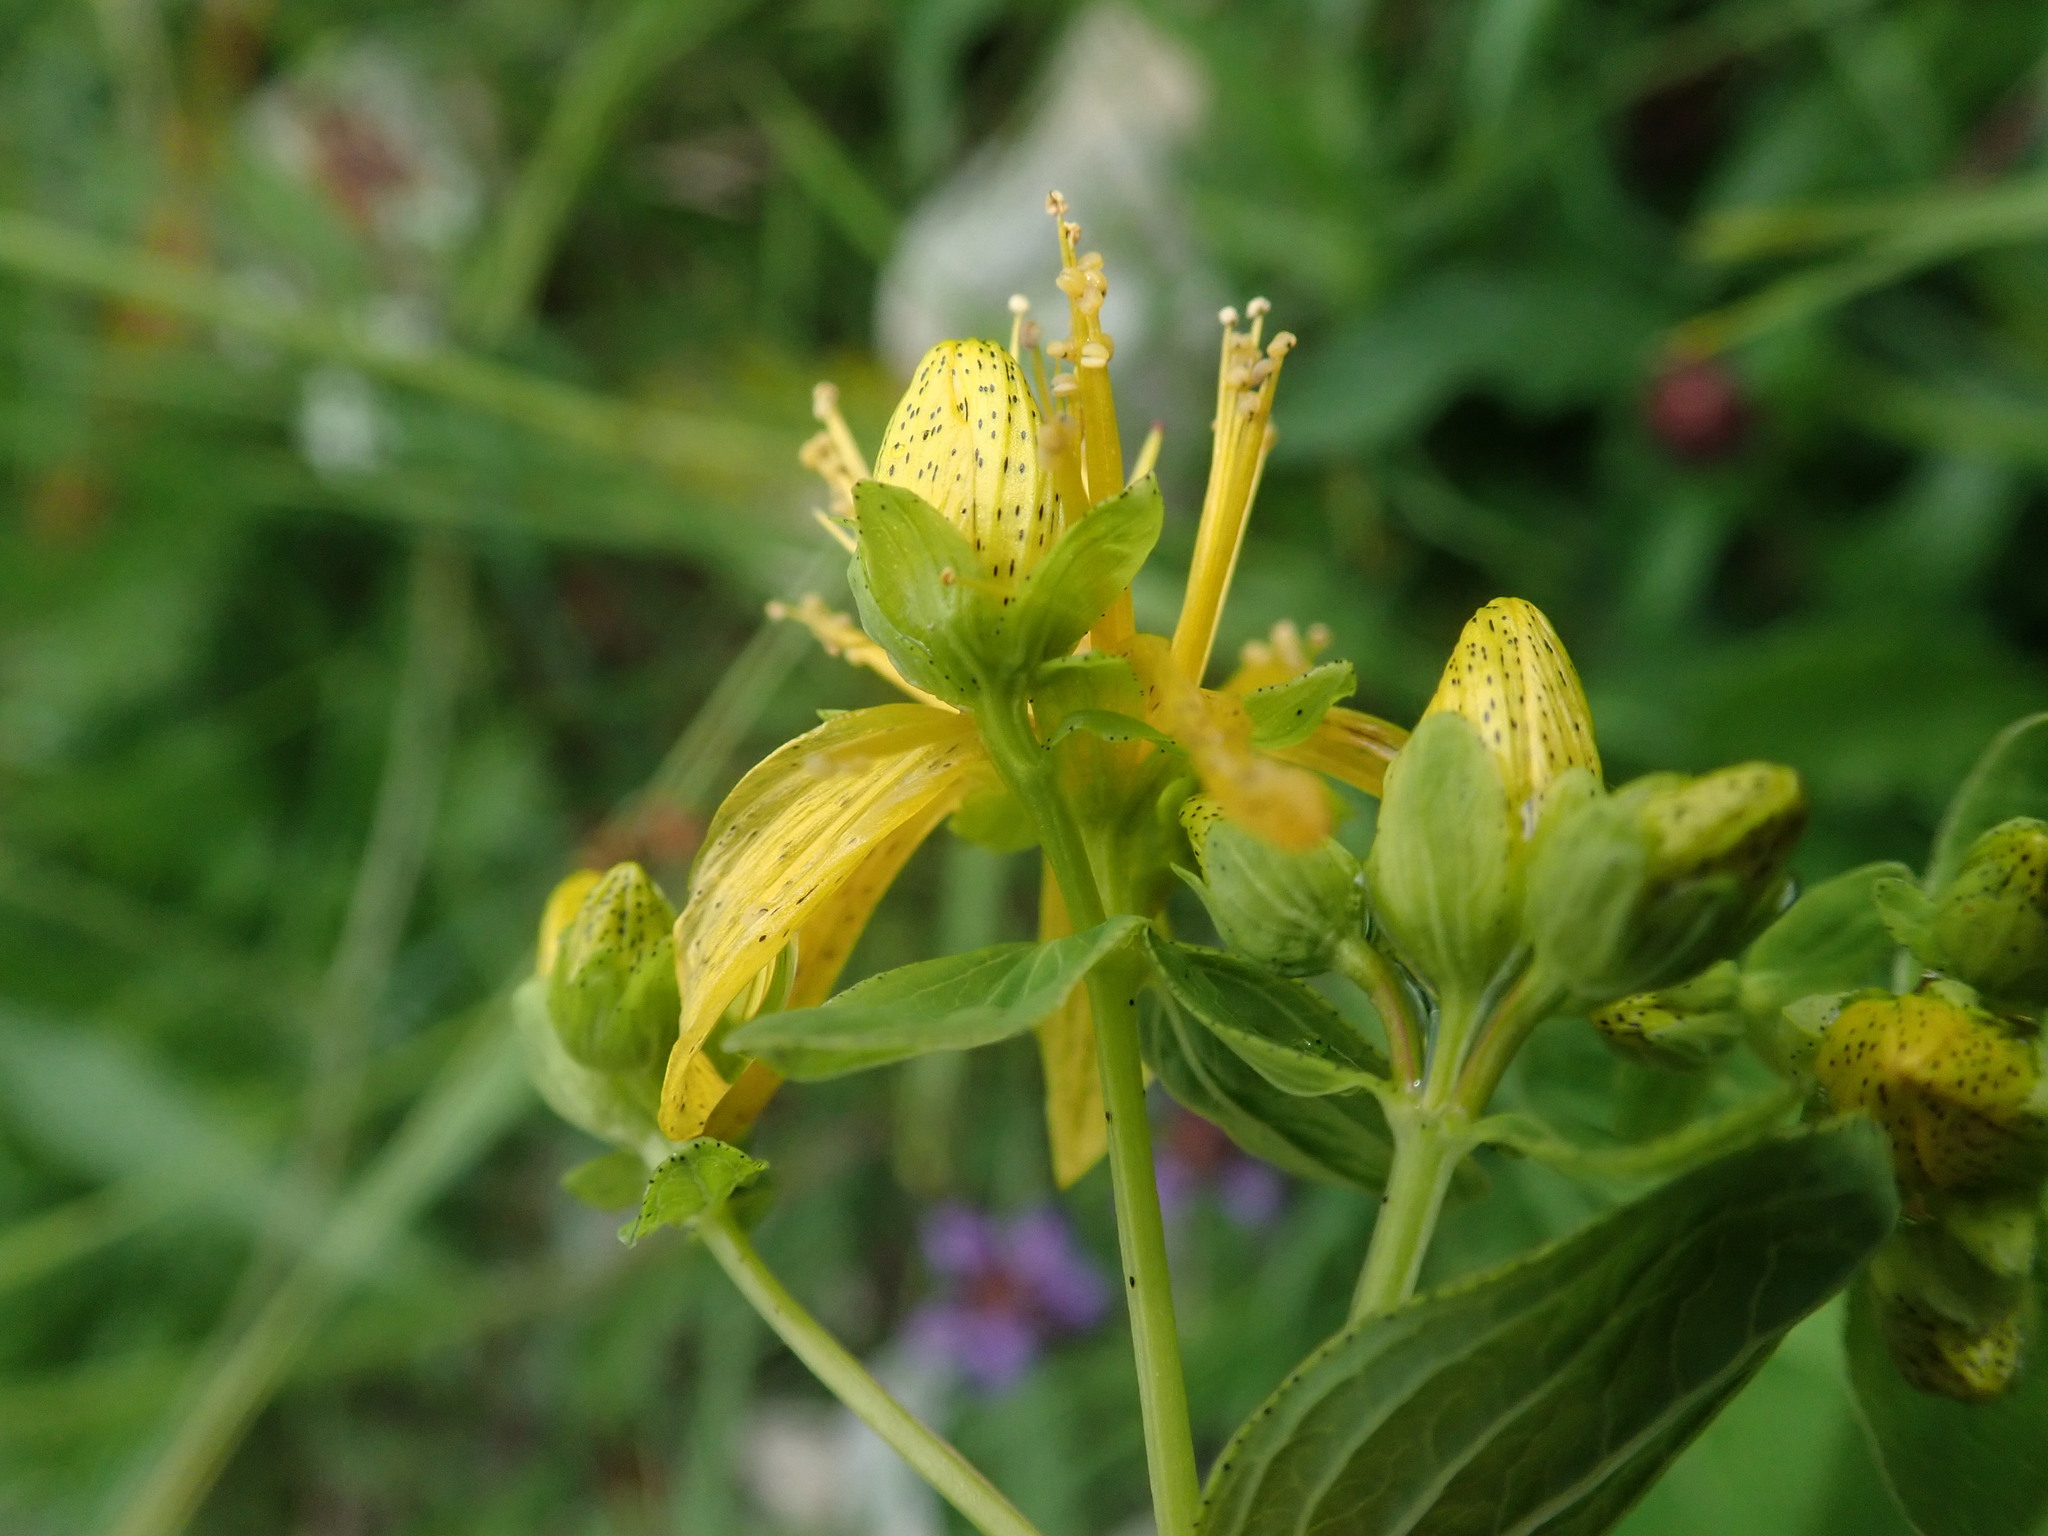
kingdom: Plantae
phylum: Tracheophyta
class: Magnoliopsida
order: Malpighiales
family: Hypericaceae
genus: Hypericum
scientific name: Hypericum maculatum
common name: Imperforate st. john's-wort
